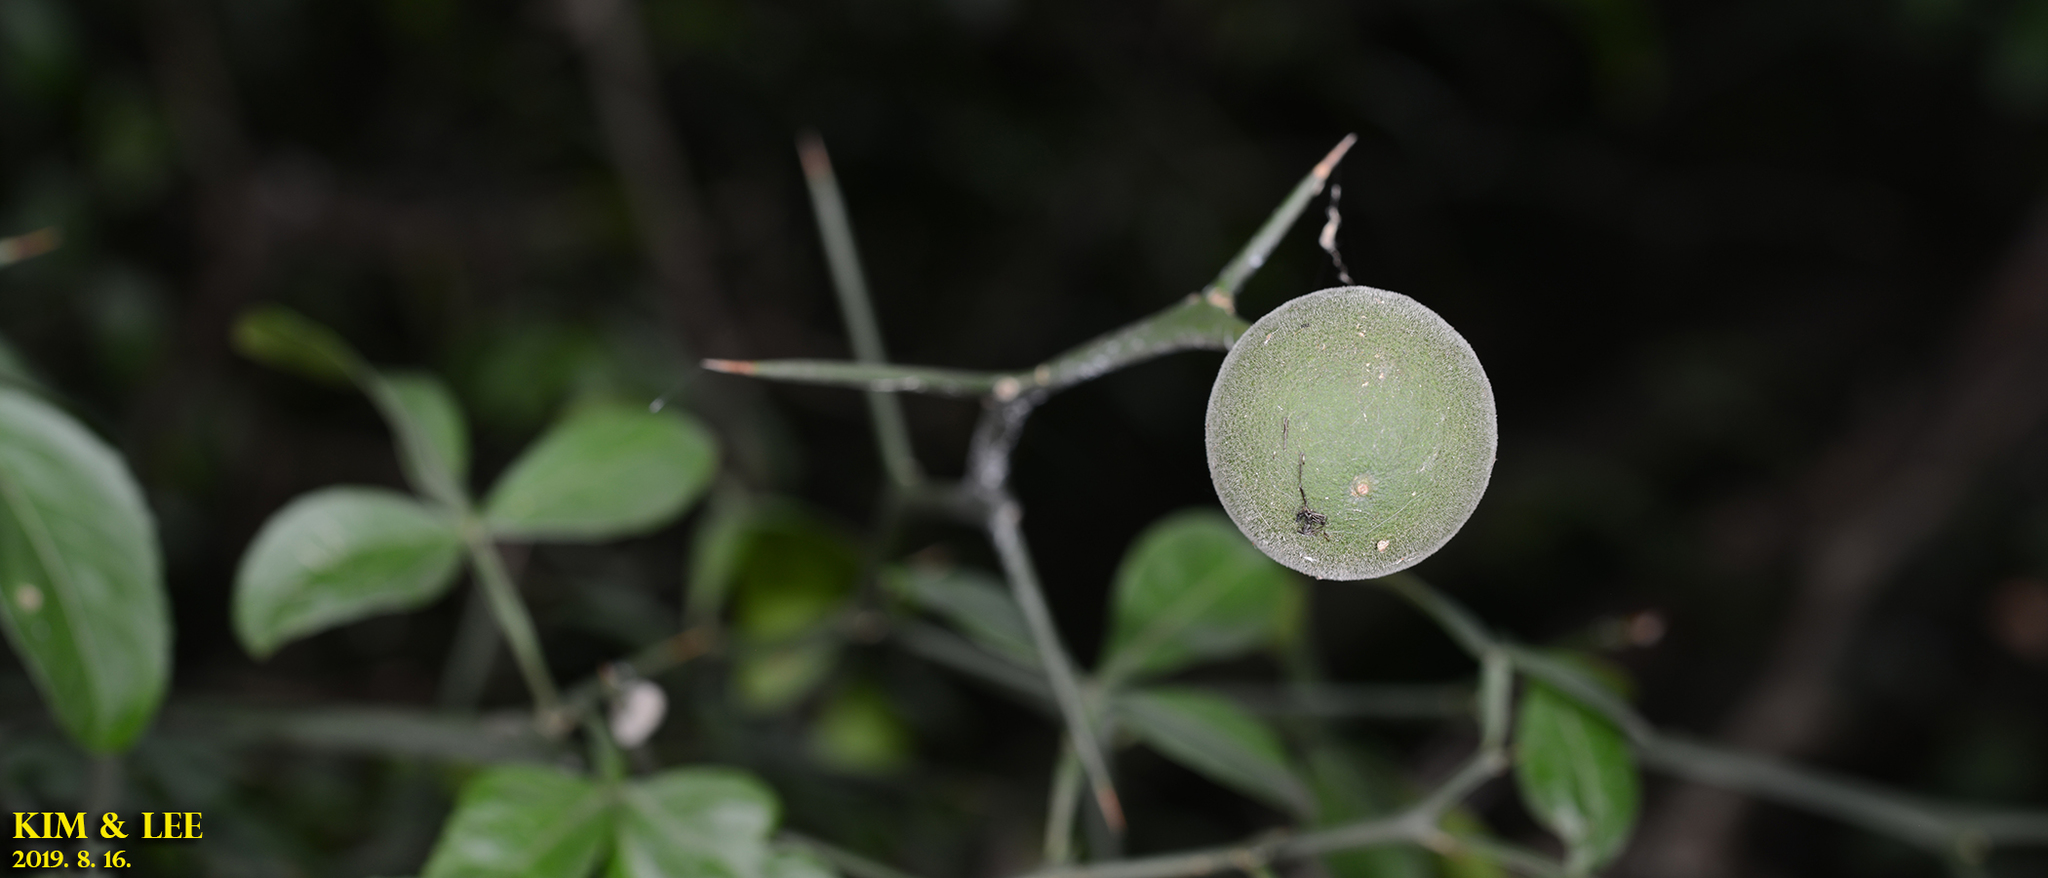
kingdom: Plantae
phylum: Tracheophyta
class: Magnoliopsida
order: Sapindales
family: Rutaceae
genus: Citrus
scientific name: Citrus trifoliata
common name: Japanese bitter-orange
